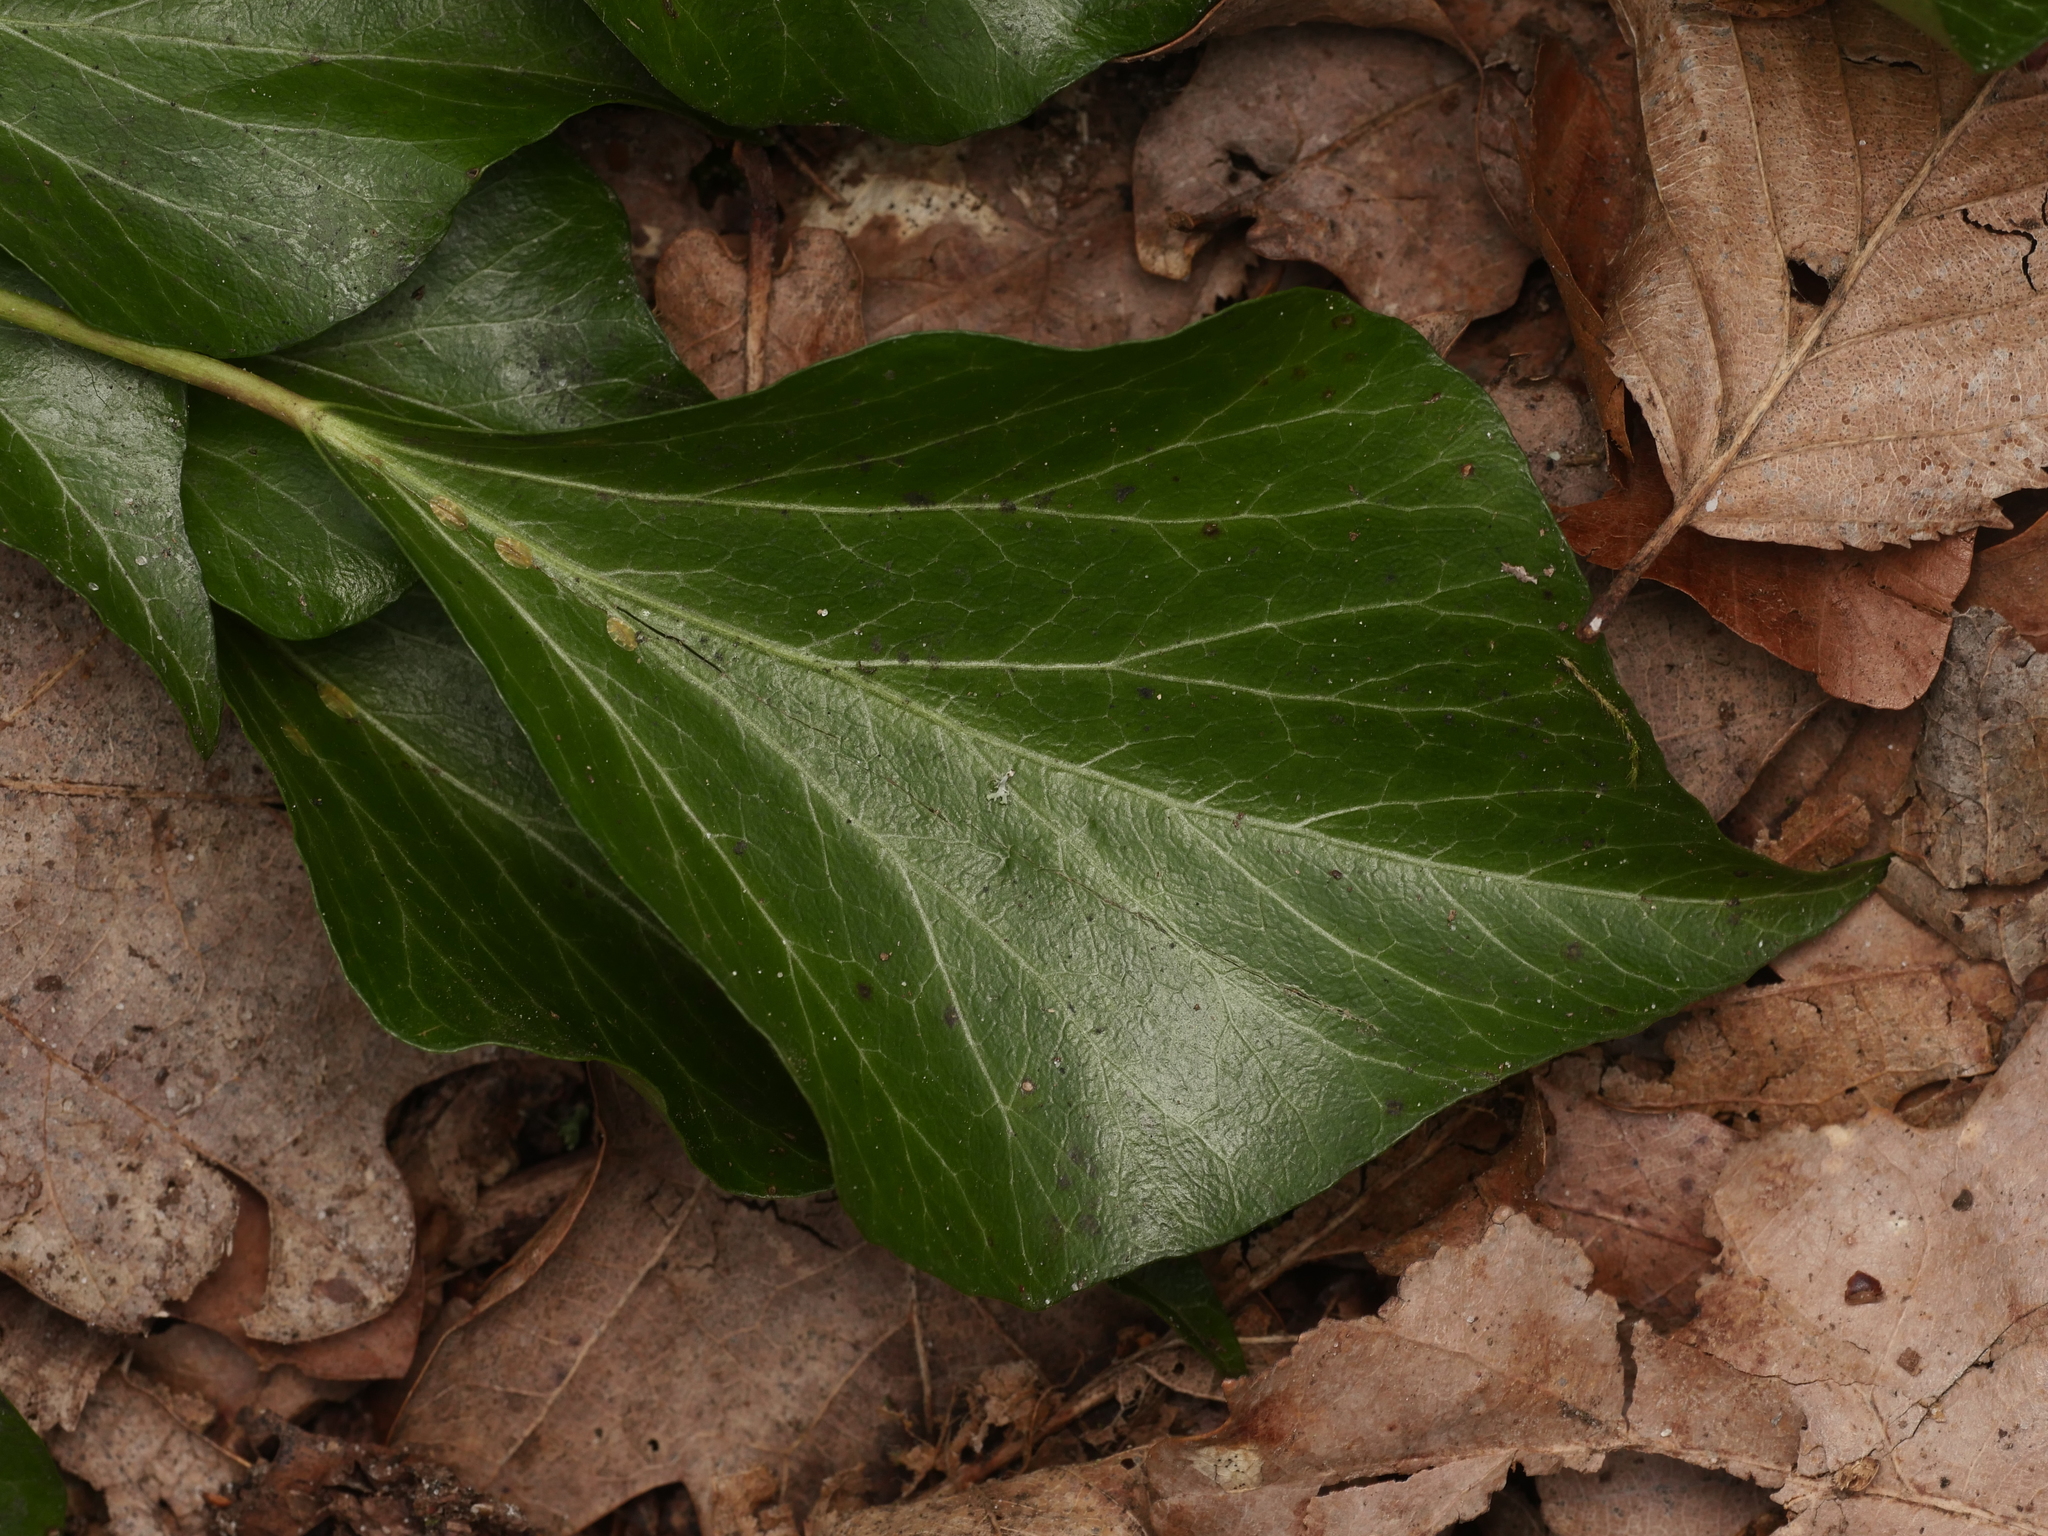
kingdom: Plantae
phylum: Tracheophyta
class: Magnoliopsida
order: Apiales
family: Araliaceae
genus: Hedera
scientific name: Hedera helix
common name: Ivy
